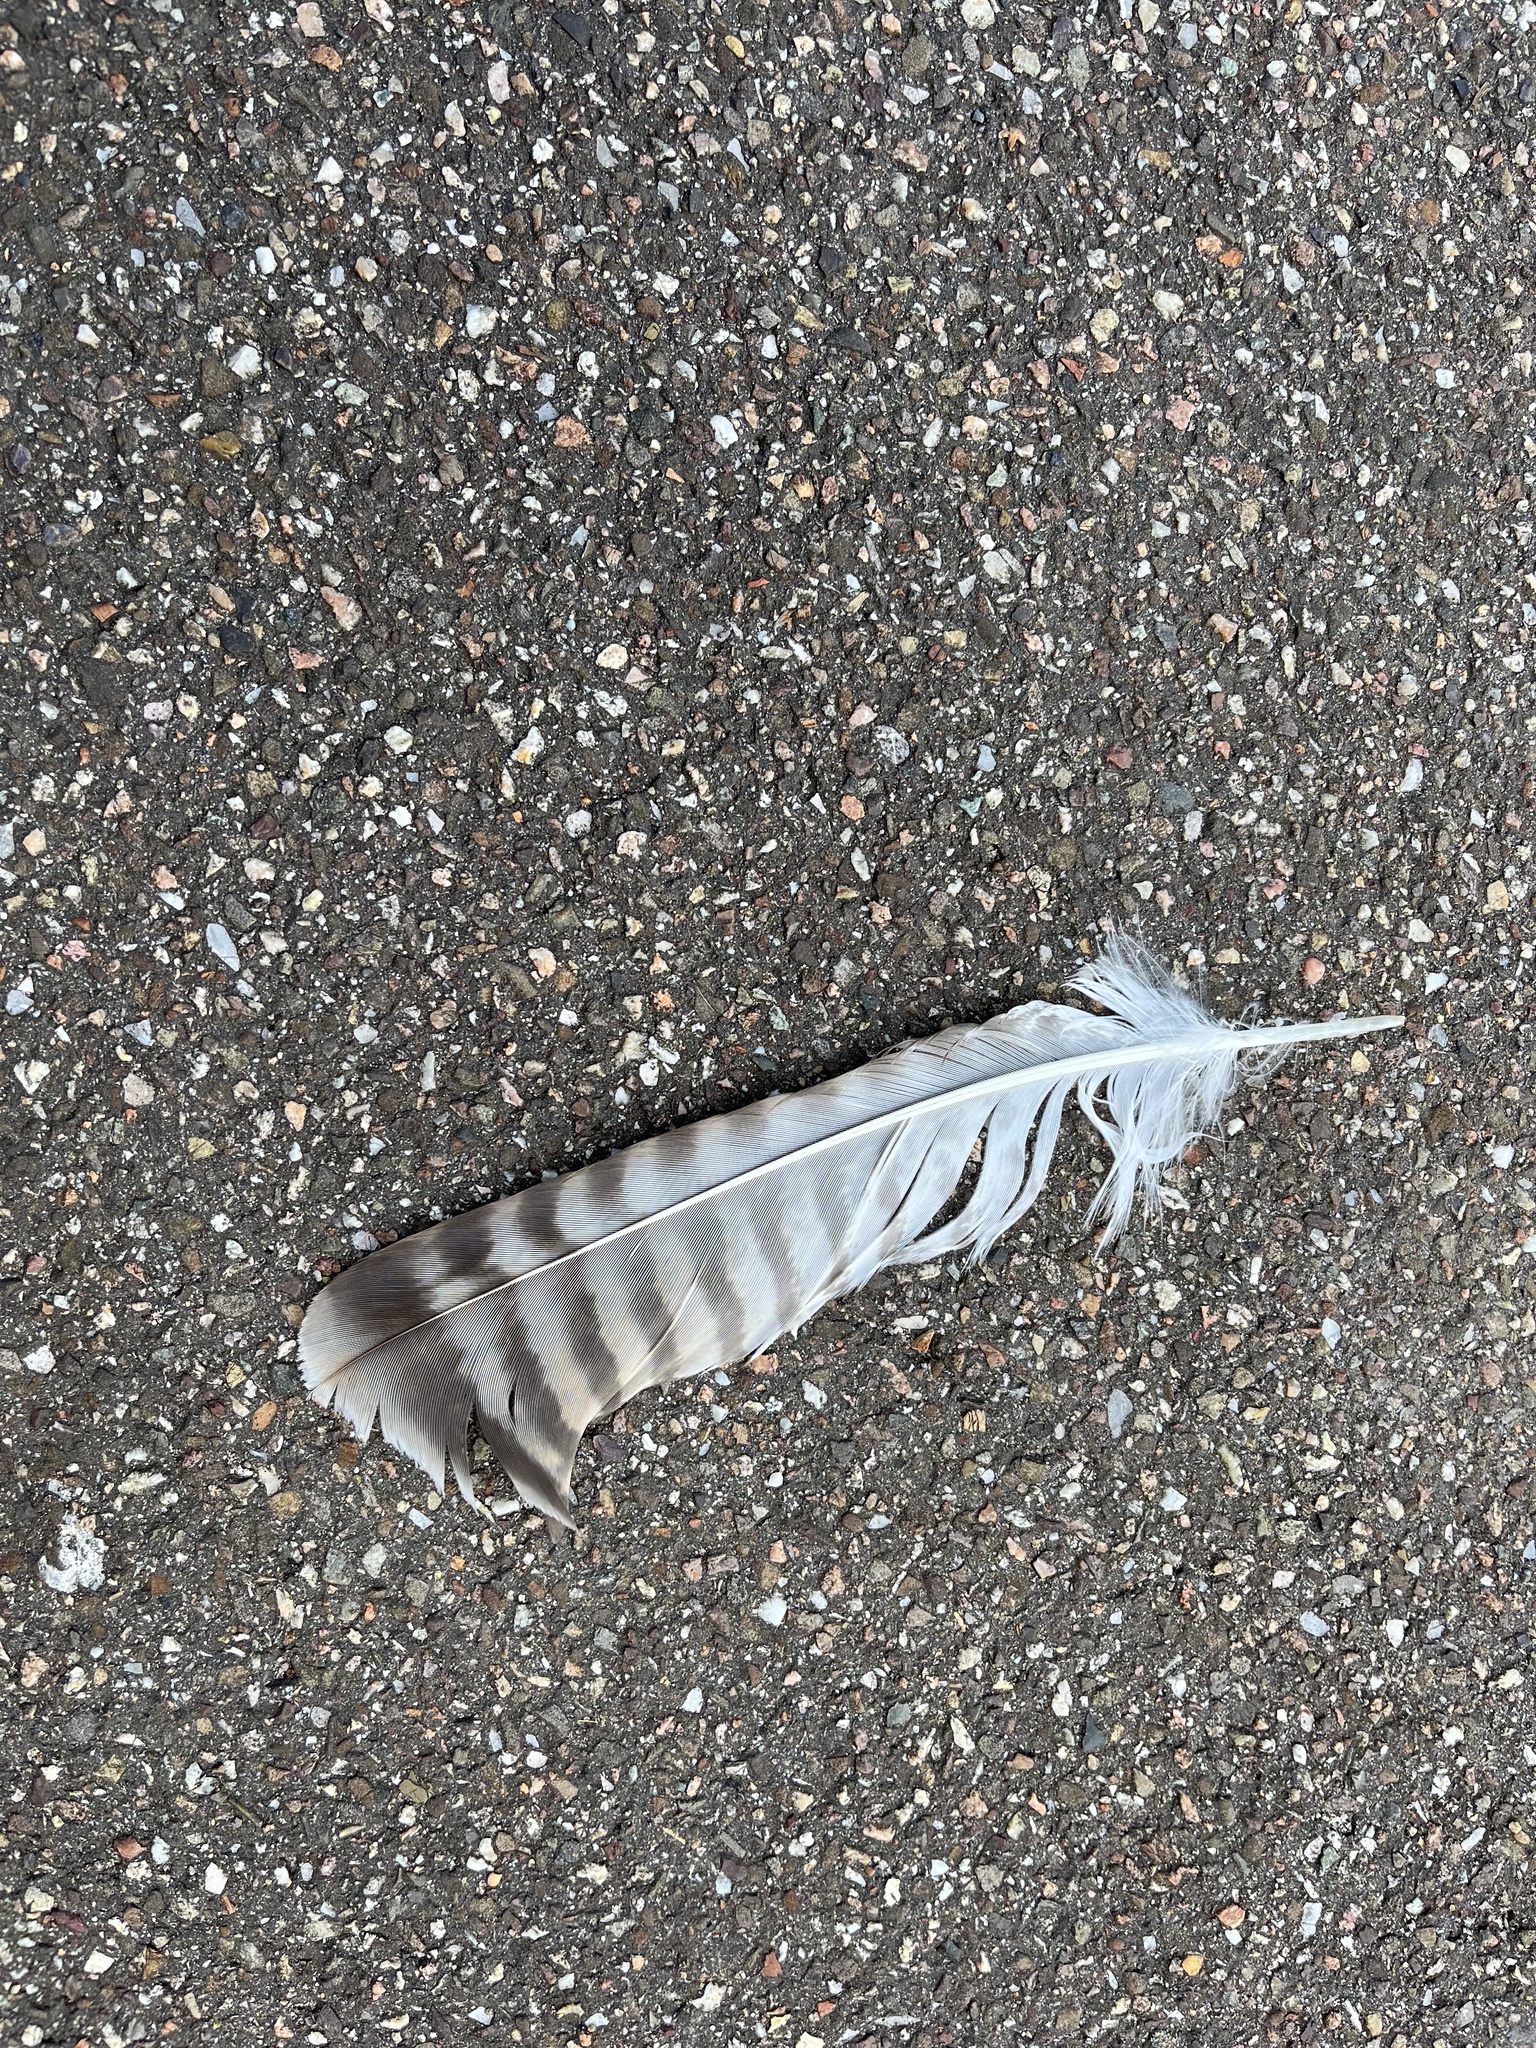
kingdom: Animalia
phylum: Chordata
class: Aves
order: Accipitriformes
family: Accipitridae
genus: Buteo
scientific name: Buteo buteo
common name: Common buzzard
